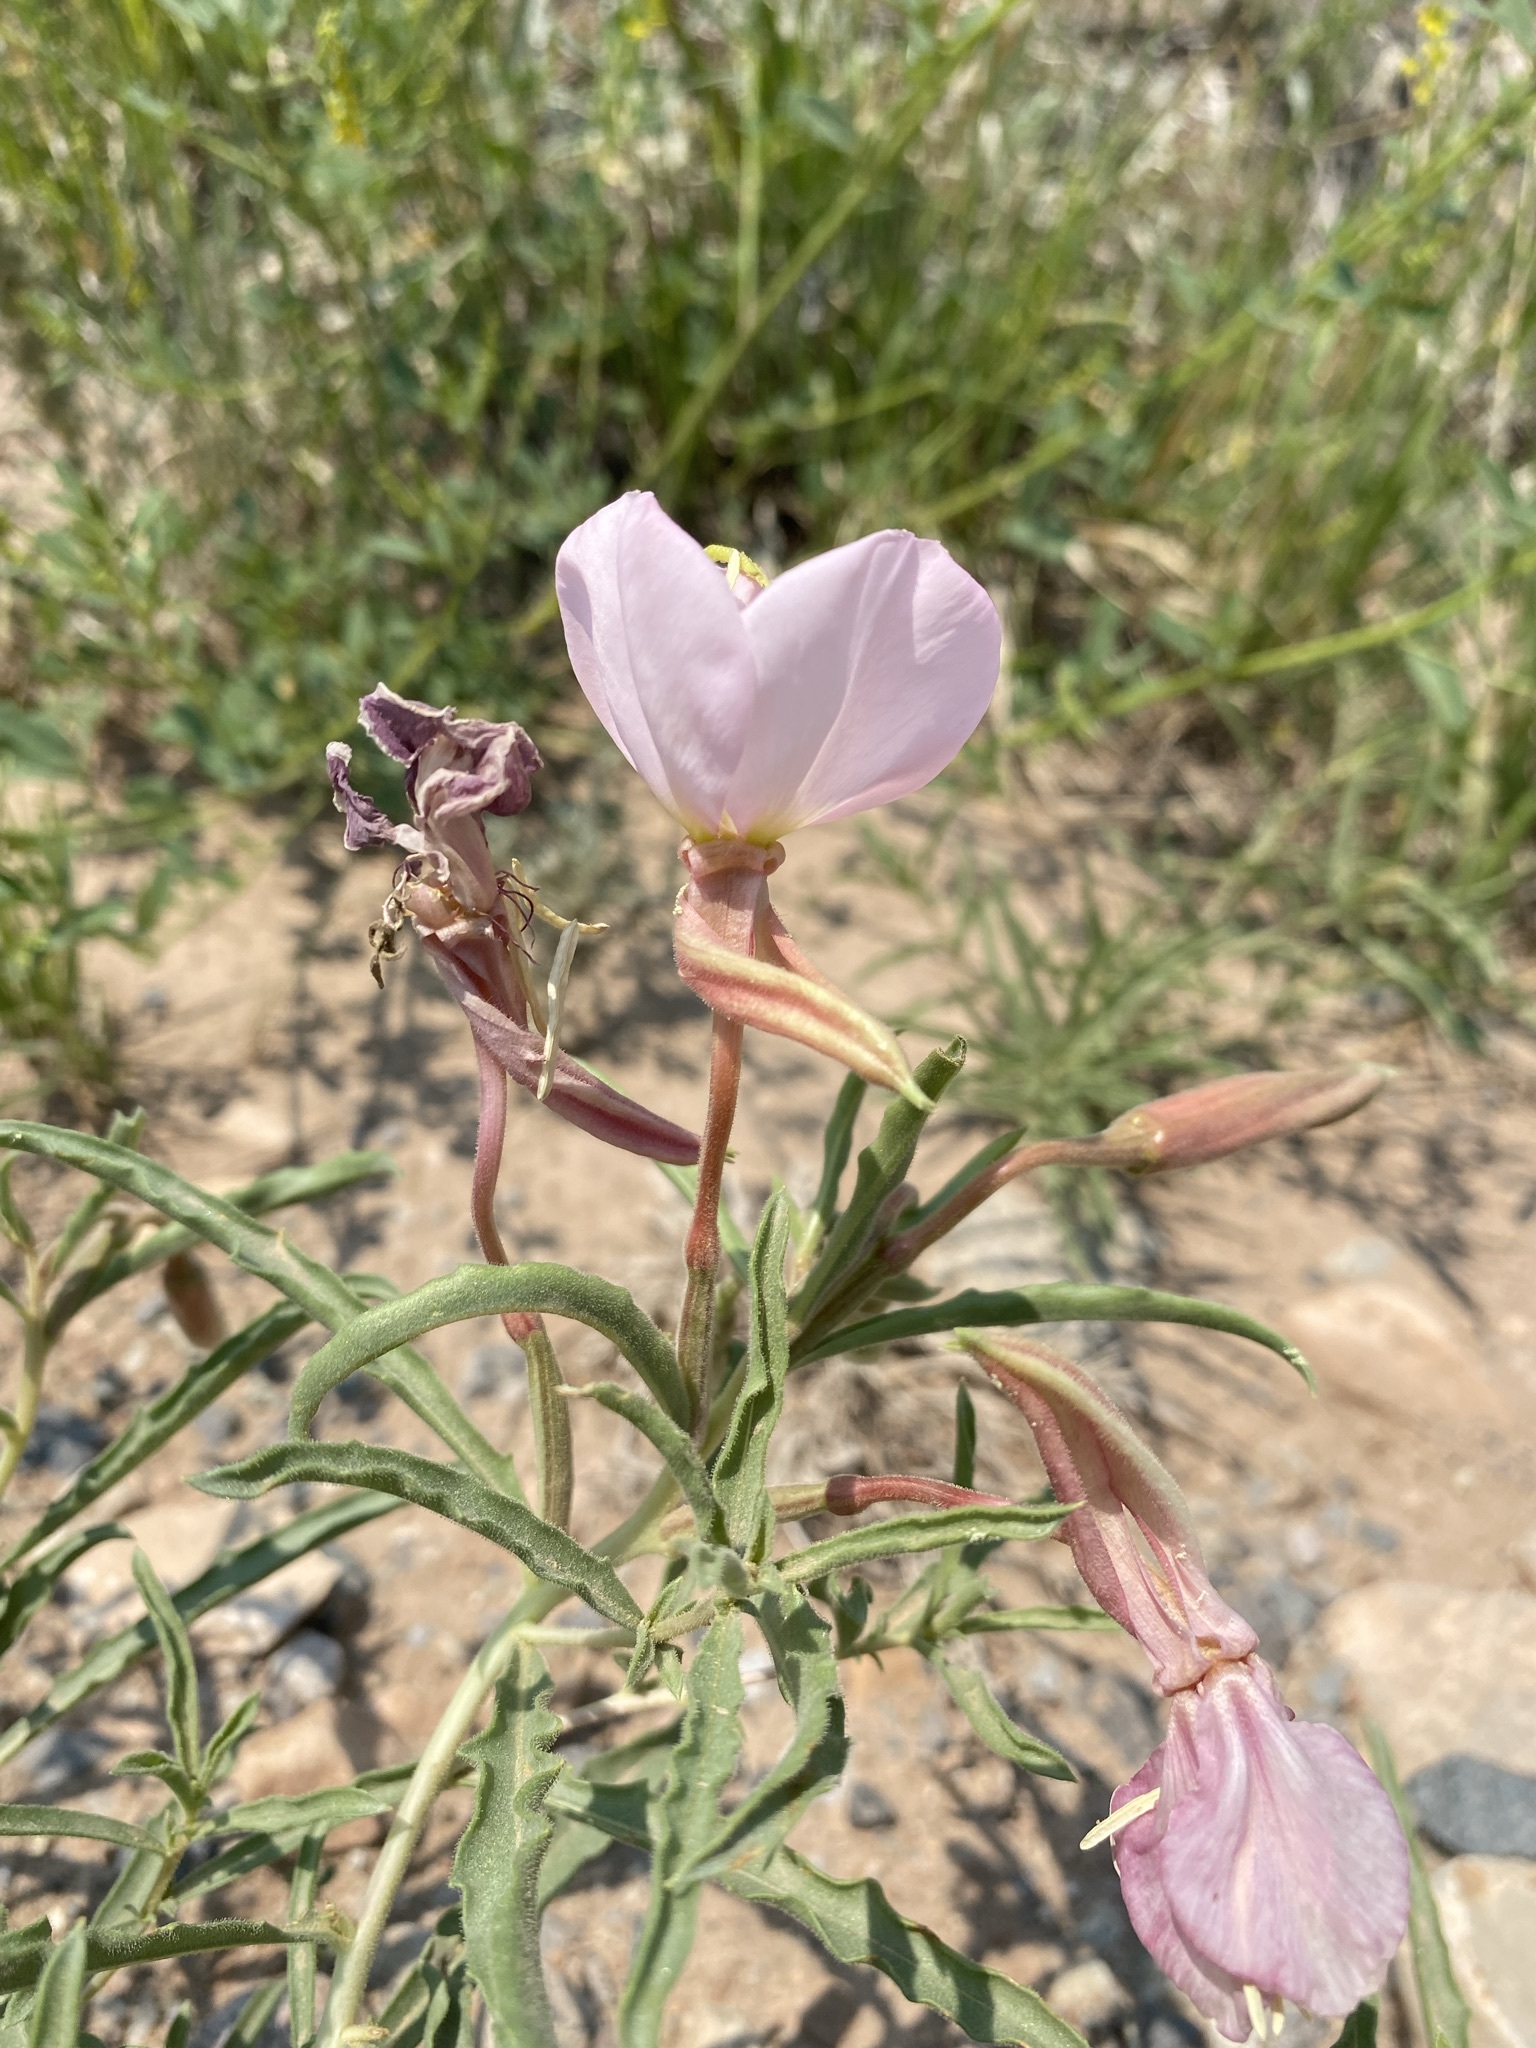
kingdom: Plantae
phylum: Tracheophyta
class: Magnoliopsida
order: Myrtales
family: Onagraceae
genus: Oenothera
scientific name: Oenothera nuttallii
